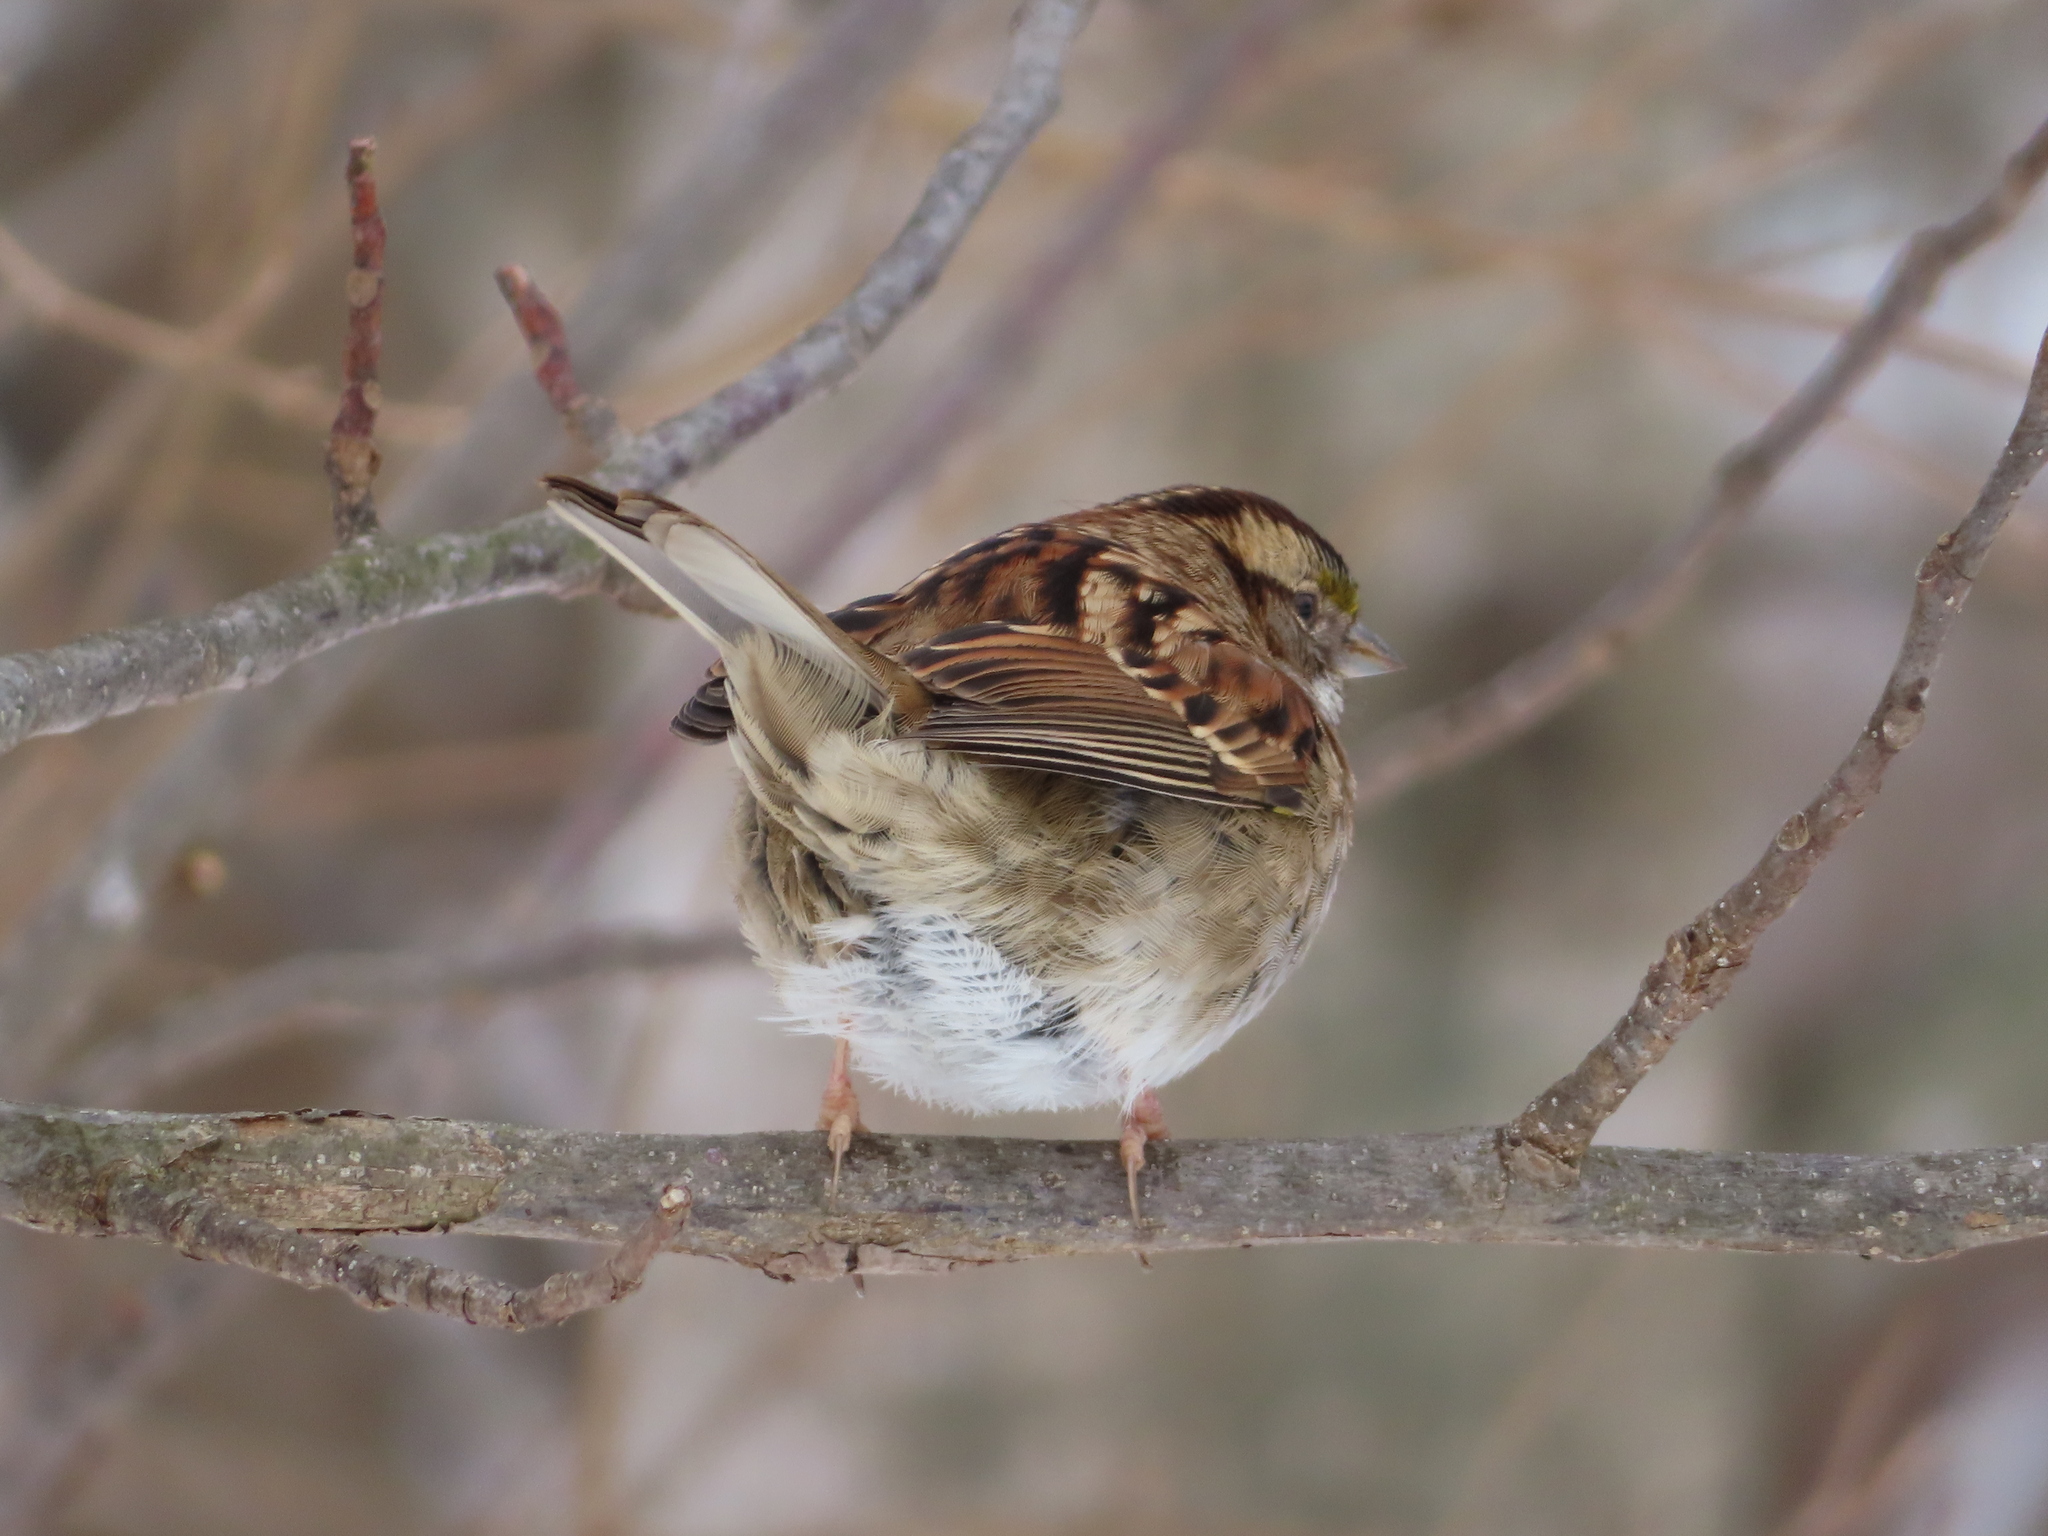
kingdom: Animalia
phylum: Chordata
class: Aves
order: Passeriformes
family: Passerellidae
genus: Zonotrichia
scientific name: Zonotrichia albicollis
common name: White-throated sparrow
